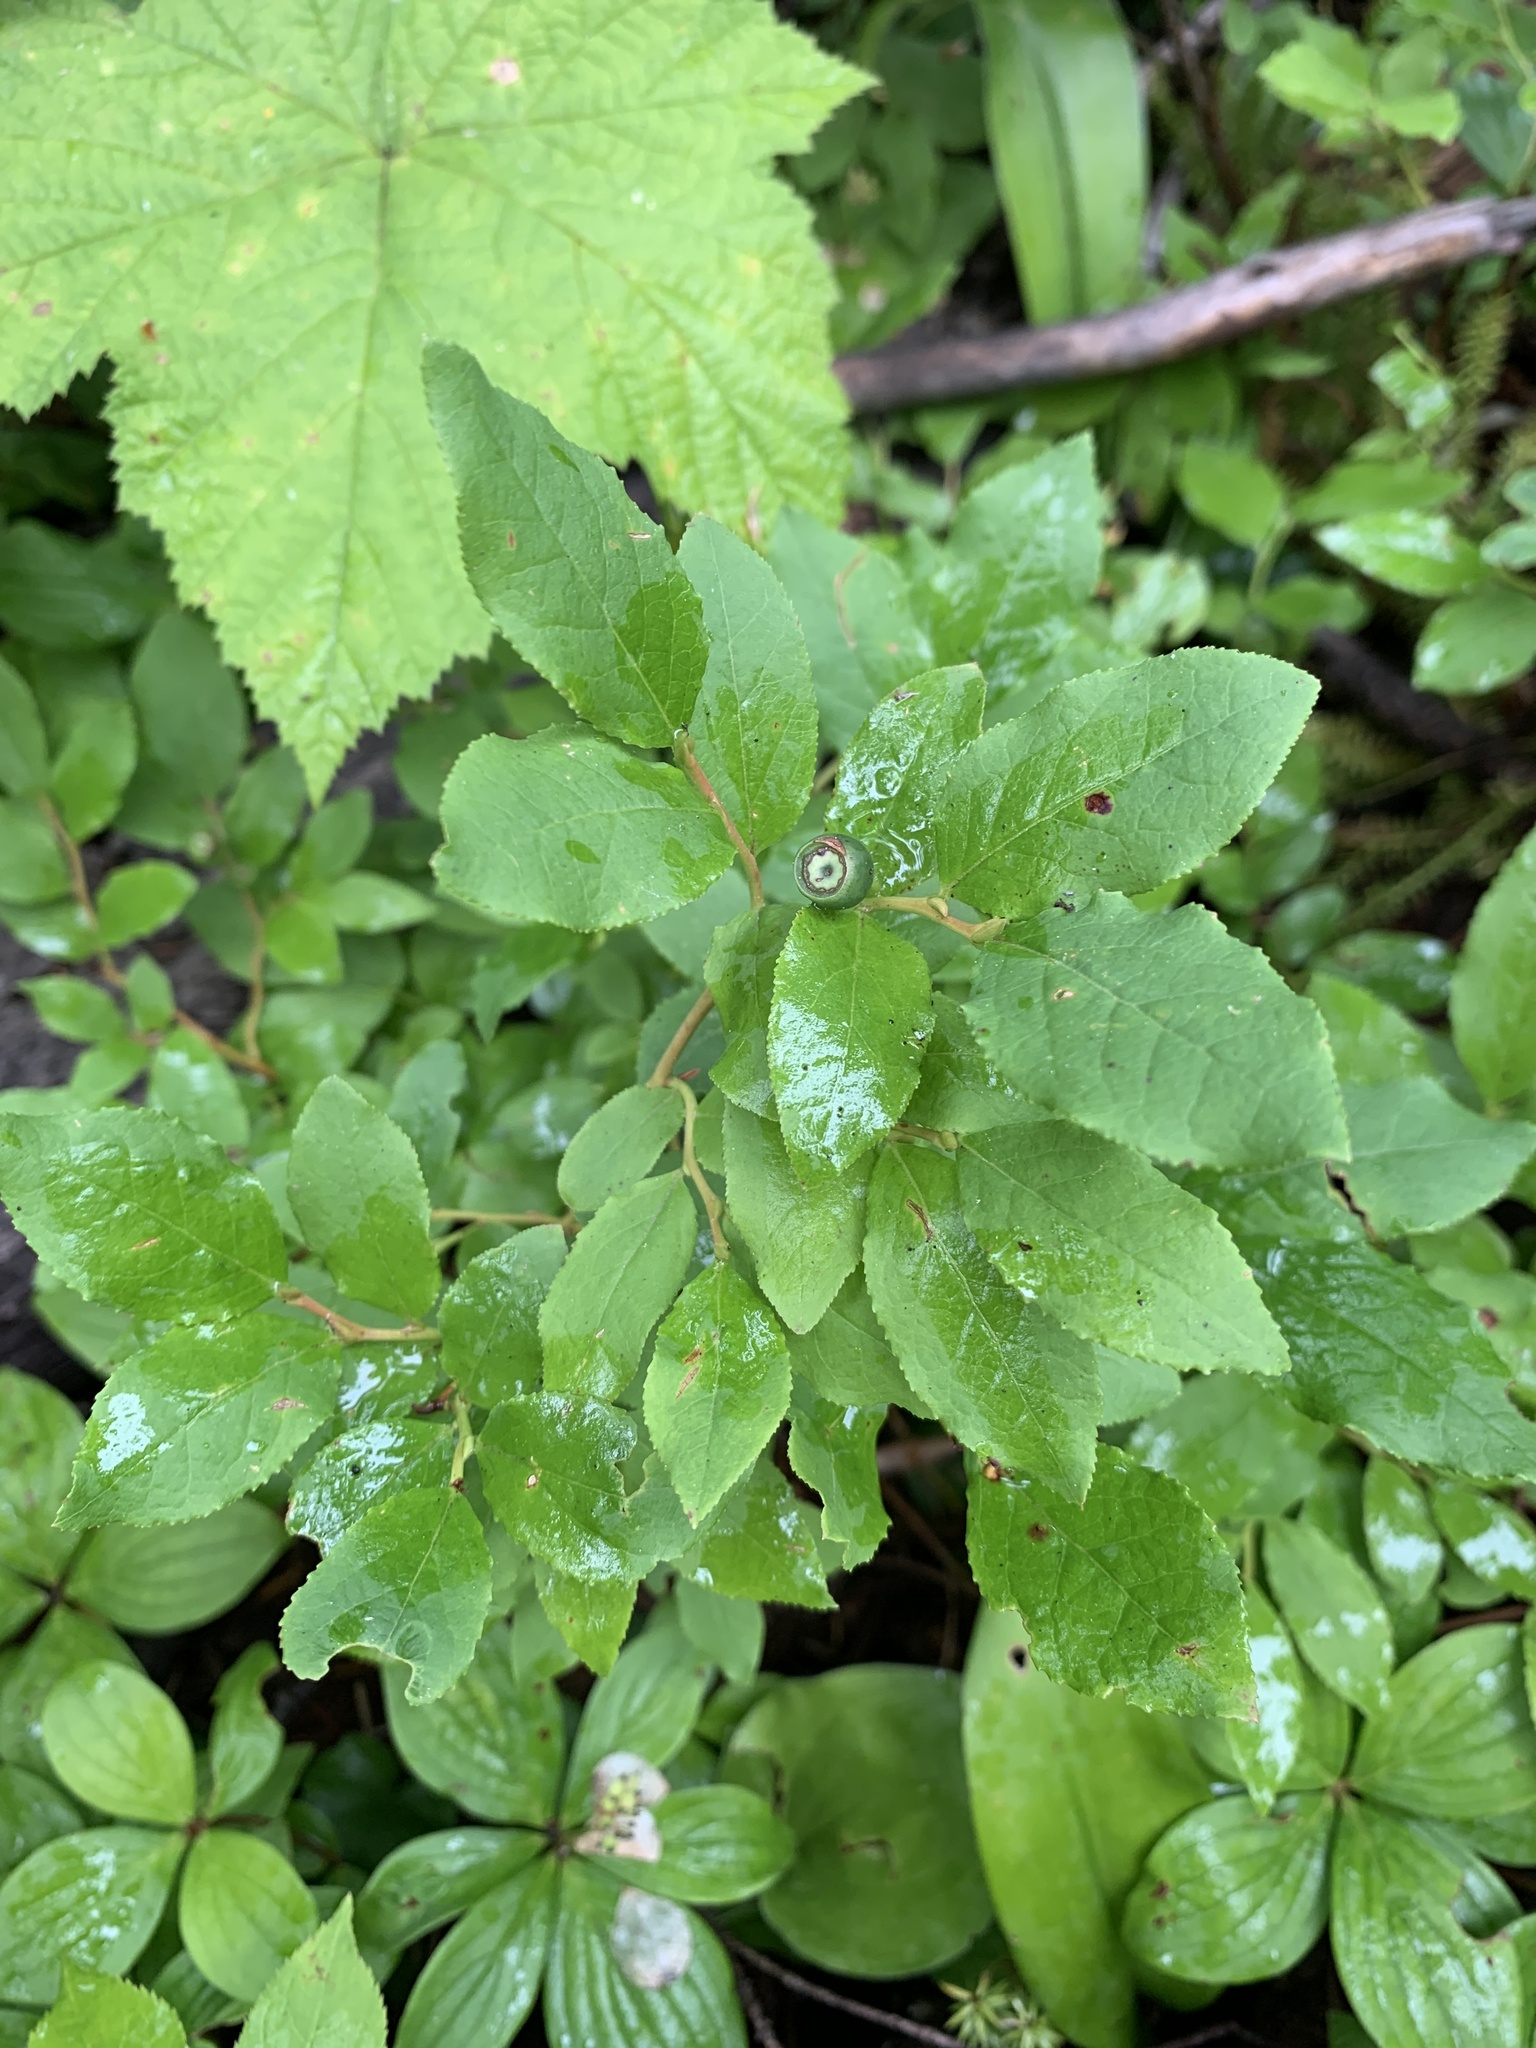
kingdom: Plantae
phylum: Tracheophyta
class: Magnoliopsida
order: Ericales
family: Ericaceae
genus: Vaccinium
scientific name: Vaccinium membranaceum
